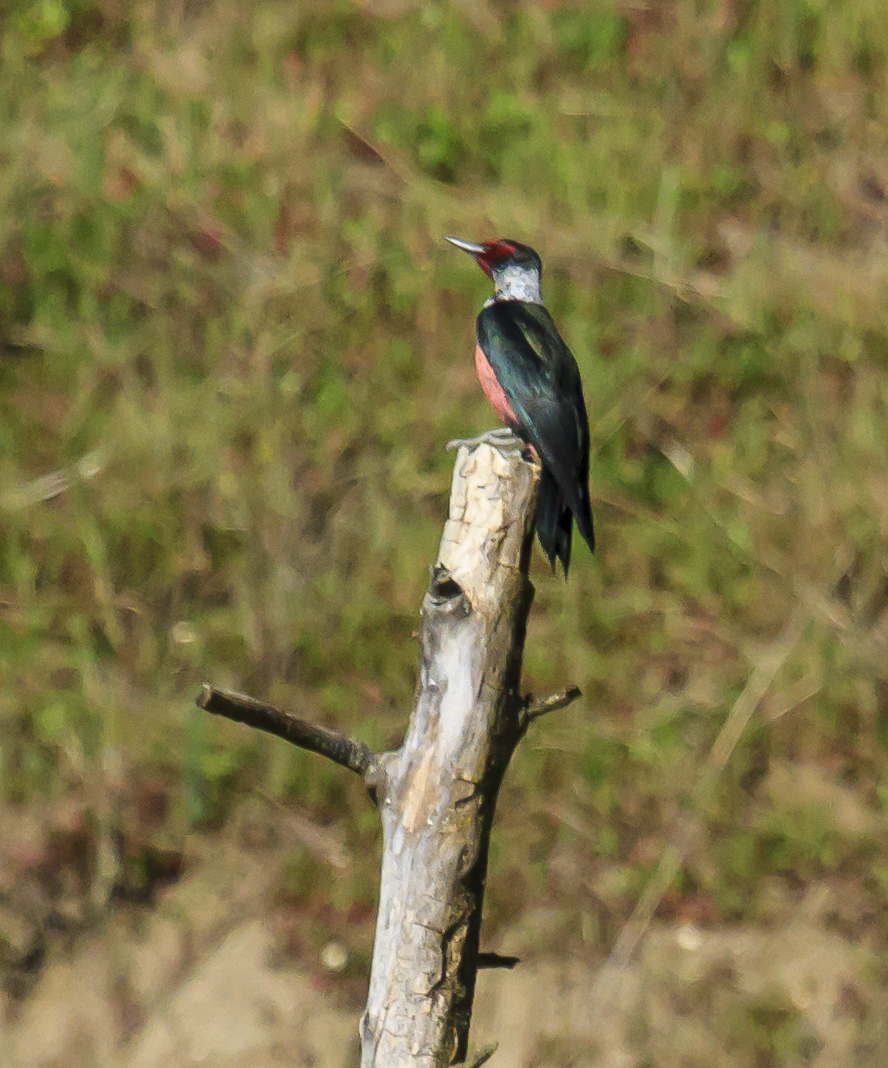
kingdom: Animalia
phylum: Chordata
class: Aves
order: Piciformes
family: Picidae
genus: Melanerpes
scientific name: Melanerpes lewis
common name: Lewis's woodpecker
